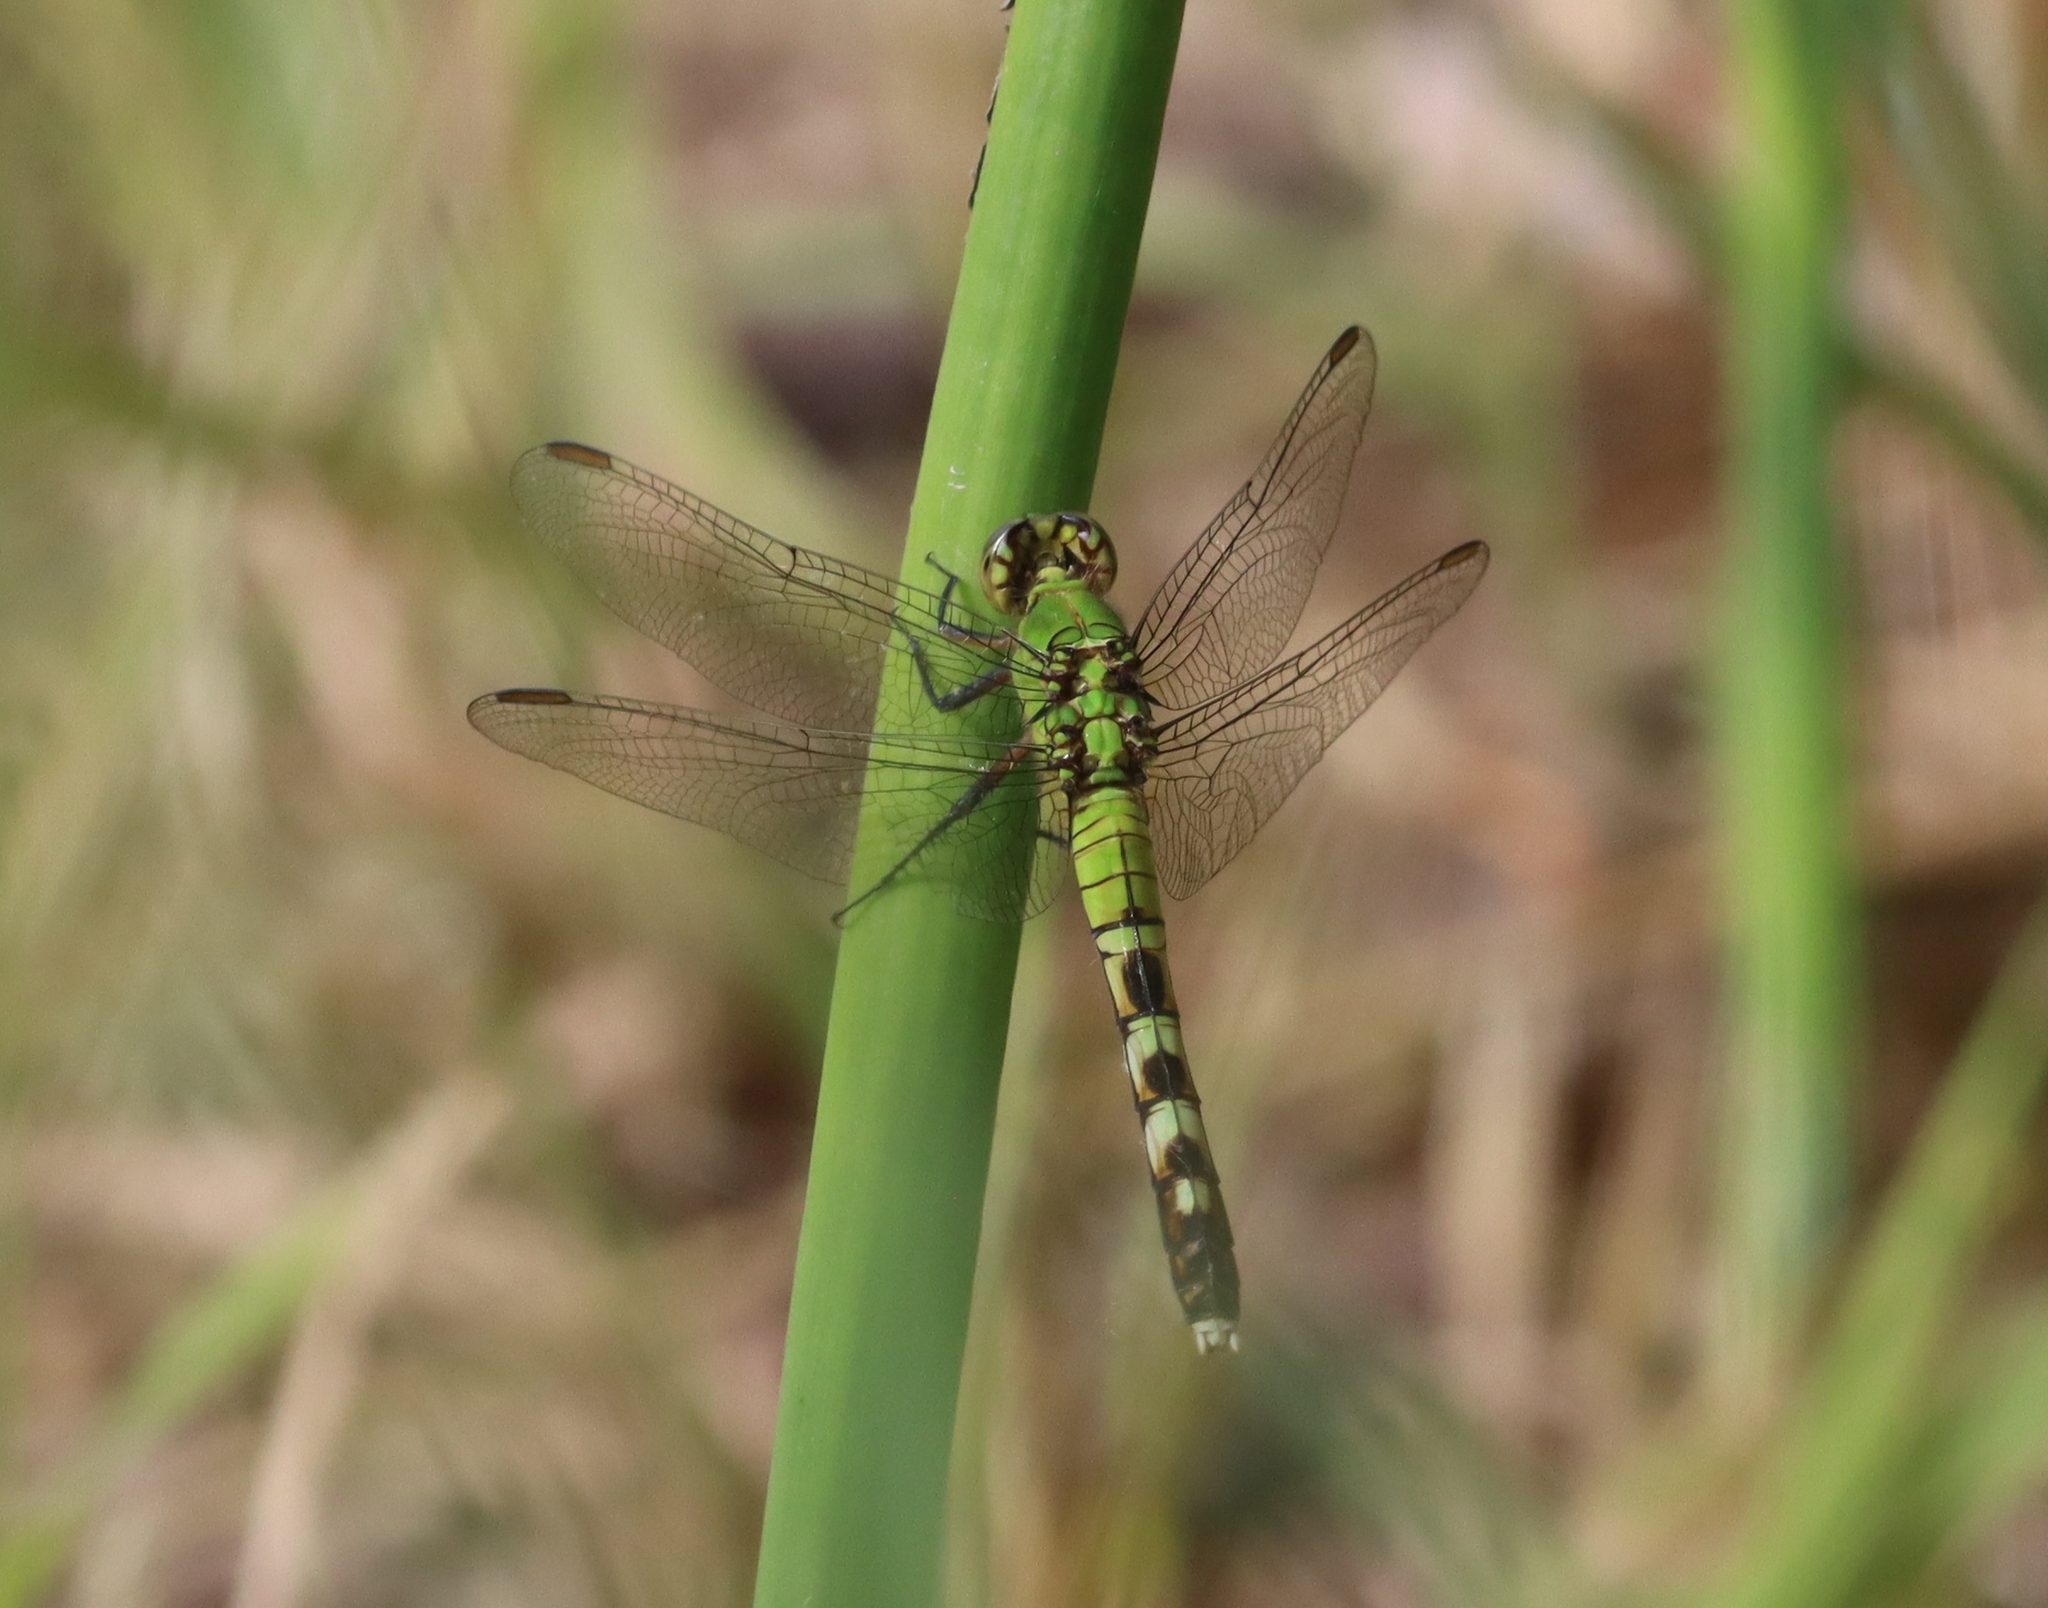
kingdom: Animalia
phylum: Arthropoda
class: Insecta
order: Odonata
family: Libellulidae
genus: Erythemis
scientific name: Erythemis simplicicollis
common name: Eastern pondhawk
